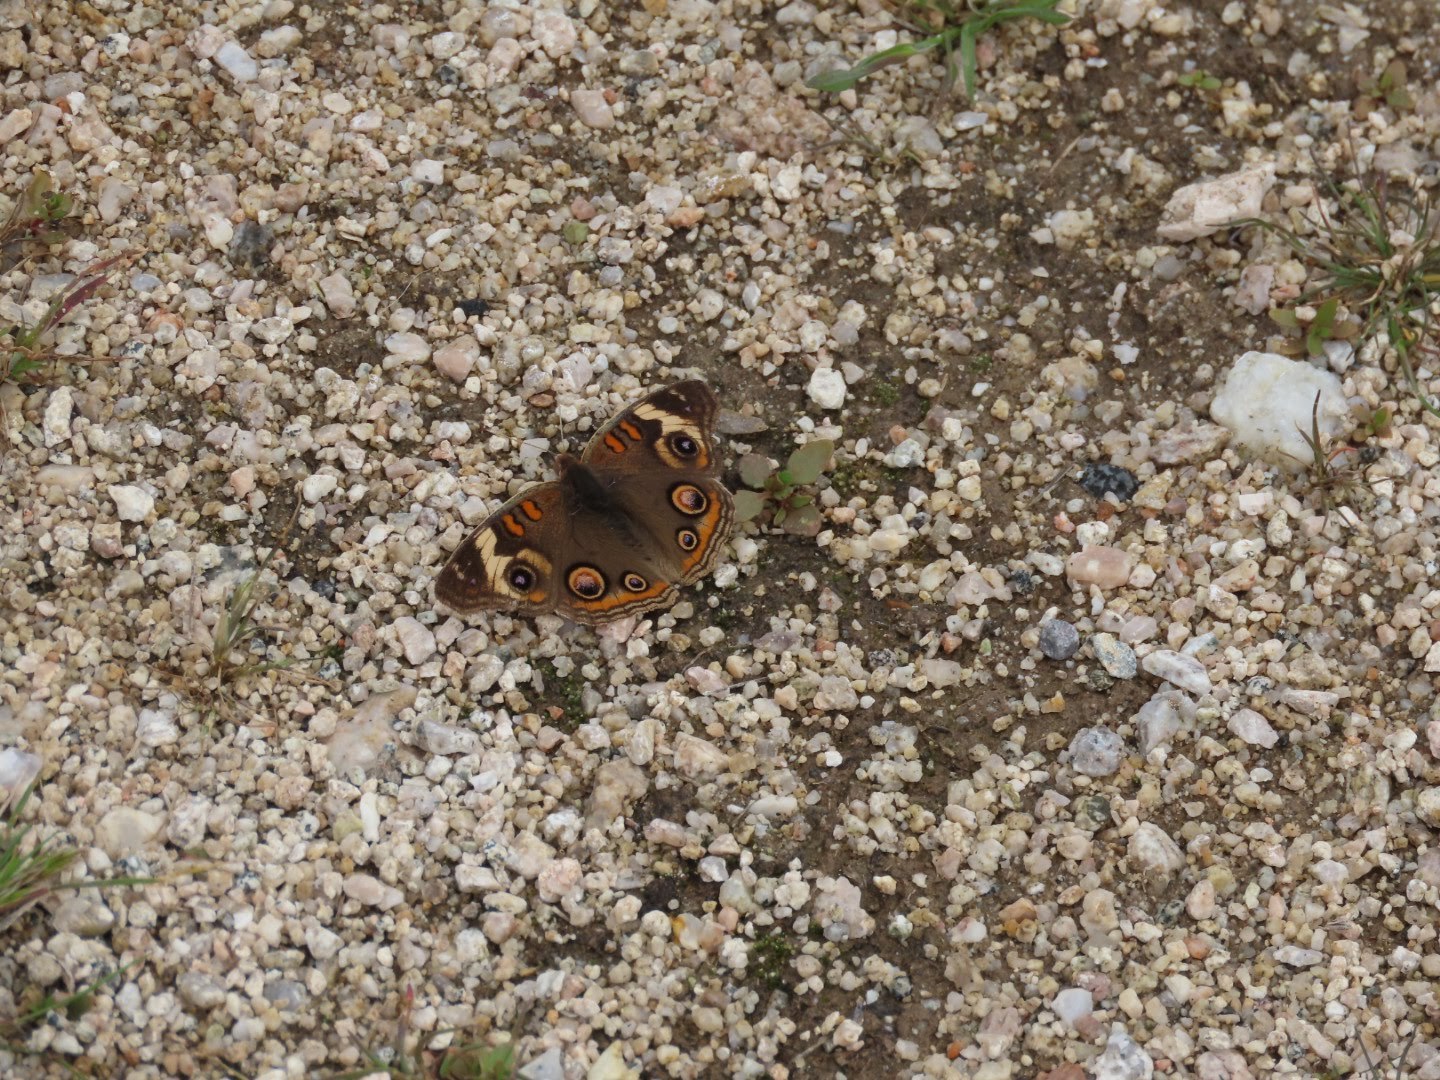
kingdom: Animalia
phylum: Arthropoda
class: Insecta
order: Lepidoptera
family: Nymphalidae
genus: Junonia
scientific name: Junonia grisea
